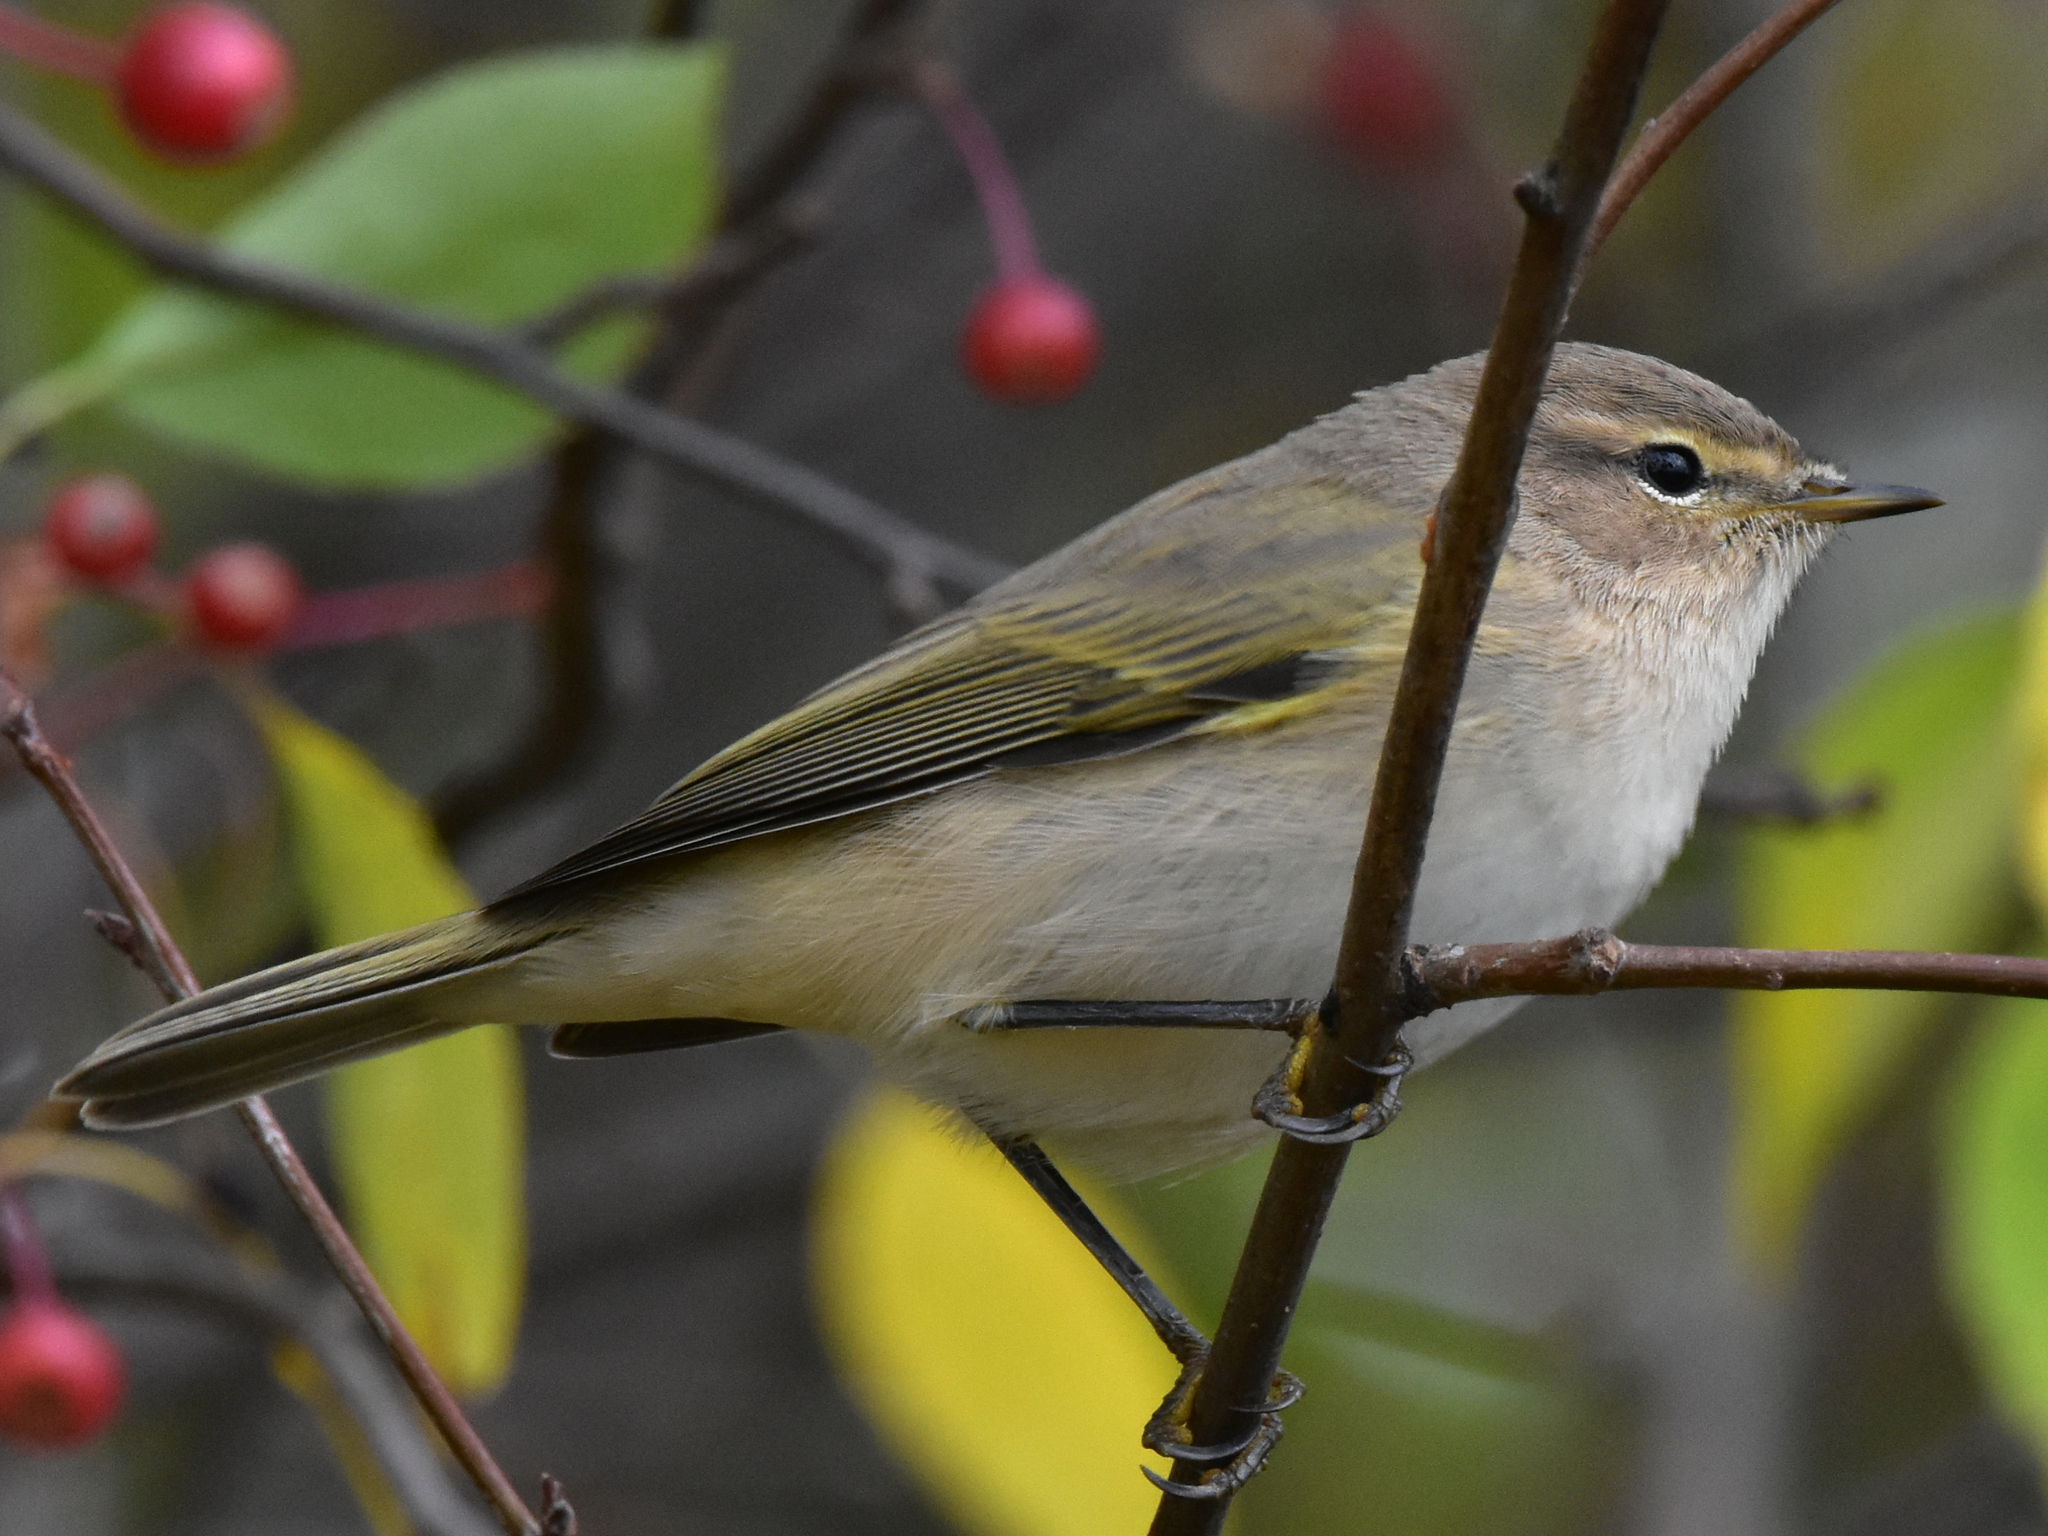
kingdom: Animalia
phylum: Chordata
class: Aves
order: Passeriformes
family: Phylloscopidae
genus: Phylloscopus
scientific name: Phylloscopus collybita
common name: Common chiffchaff
